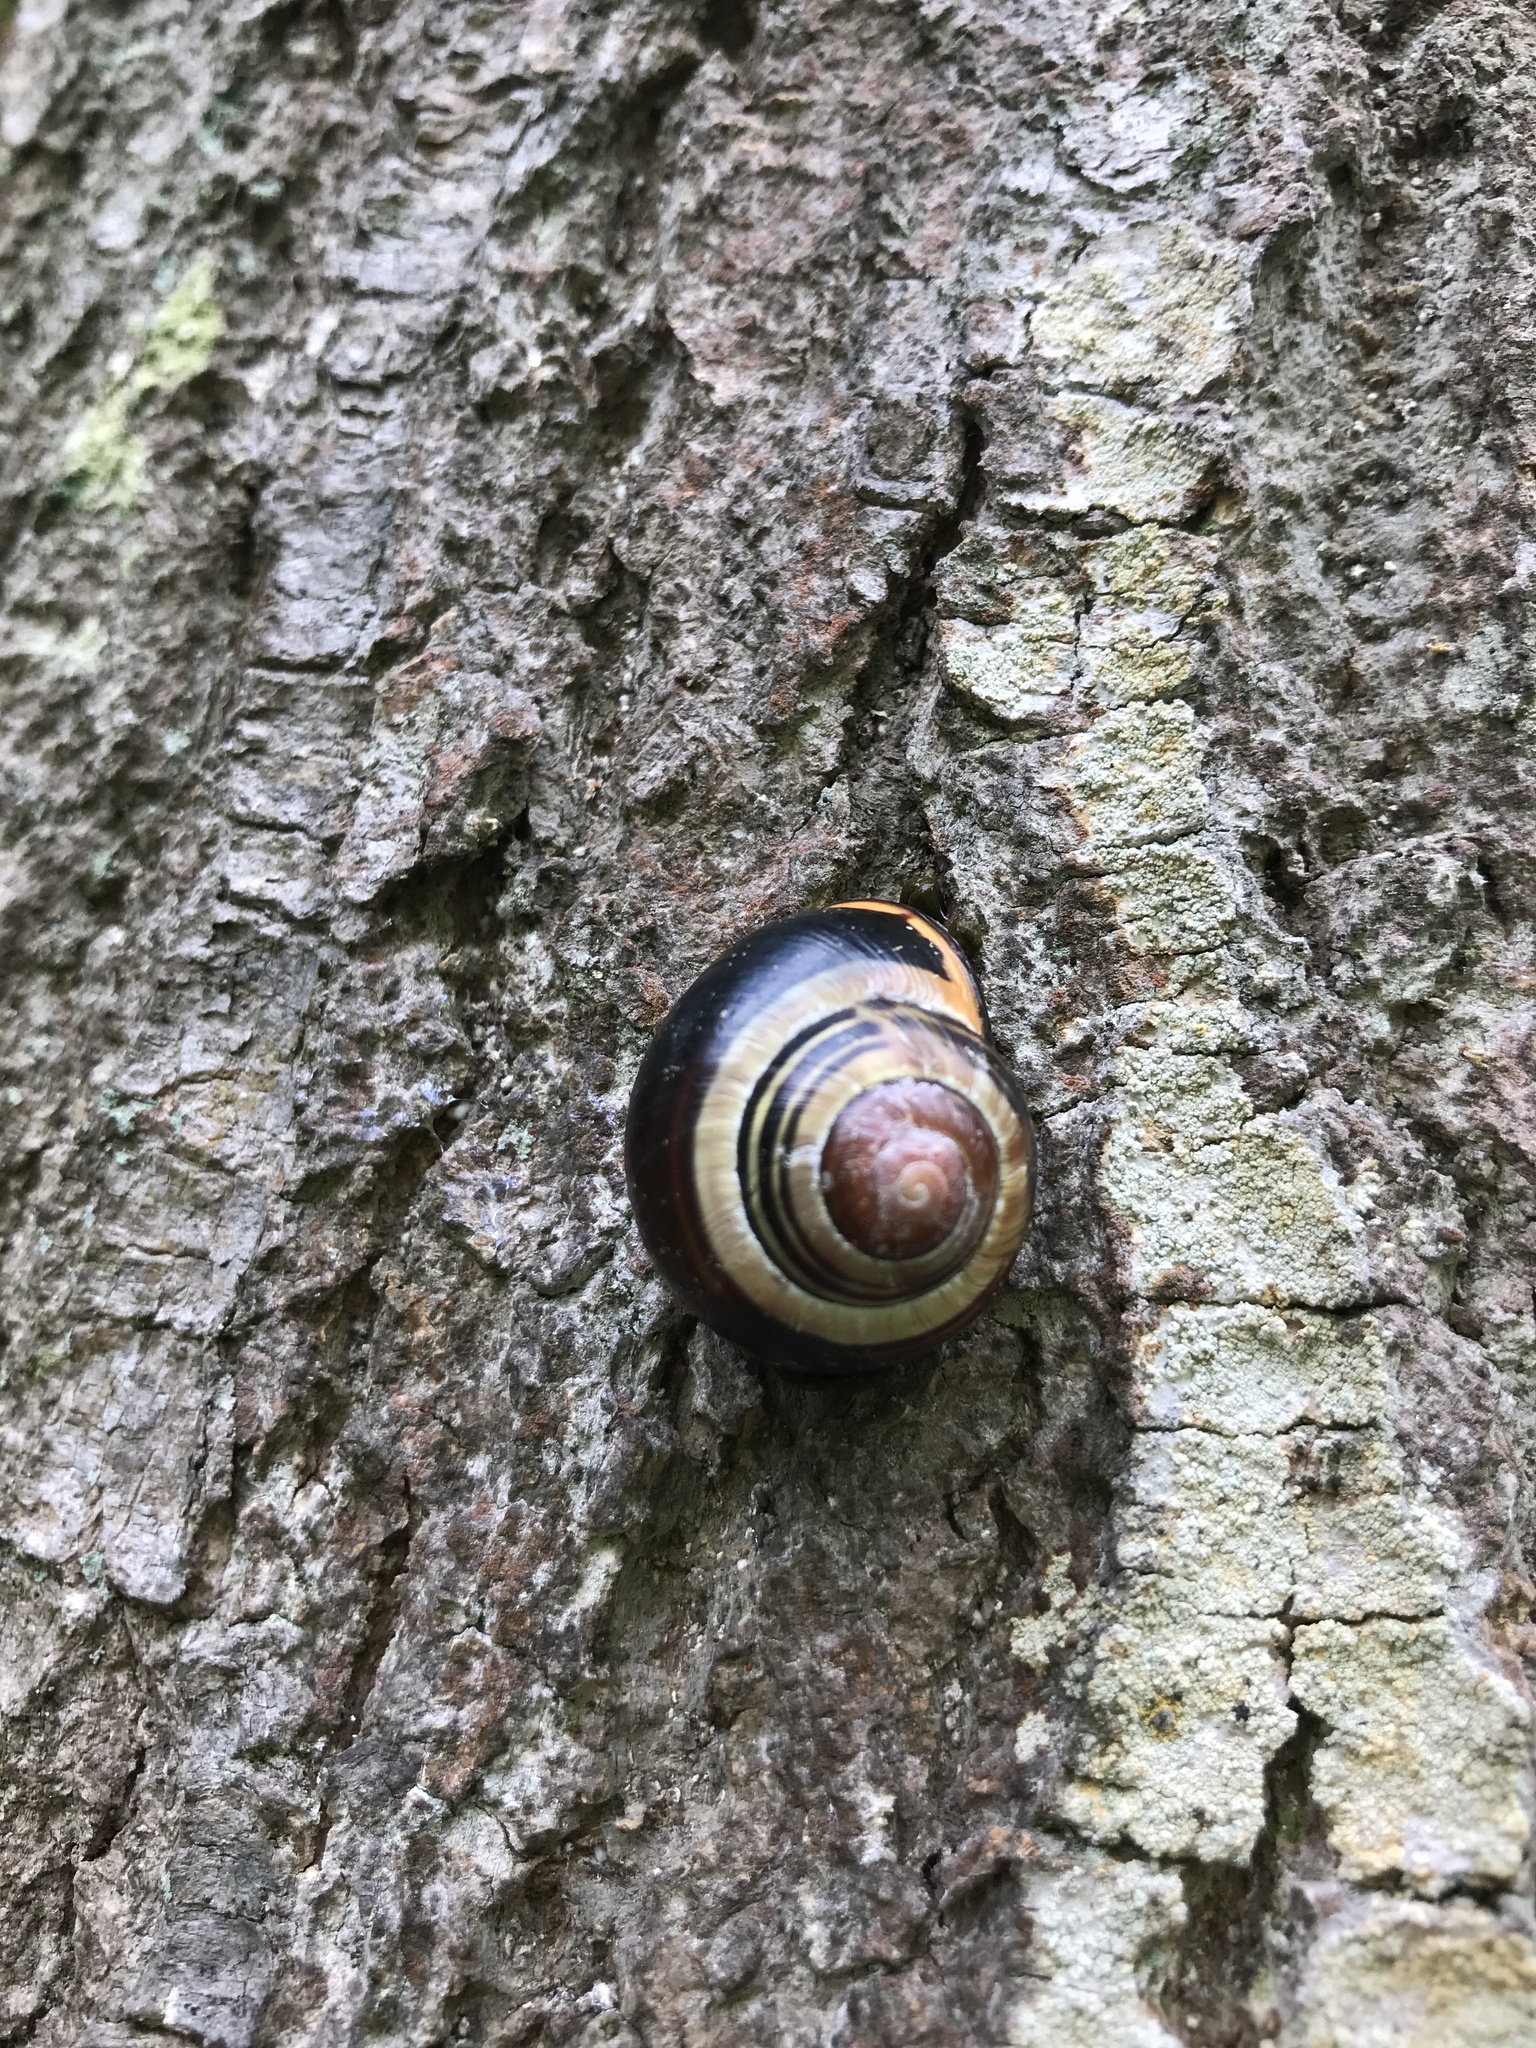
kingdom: Animalia
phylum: Mollusca
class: Gastropoda
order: Stylommatophora
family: Helicidae
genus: Cepaea
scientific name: Cepaea nemoralis
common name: Grovesnail
